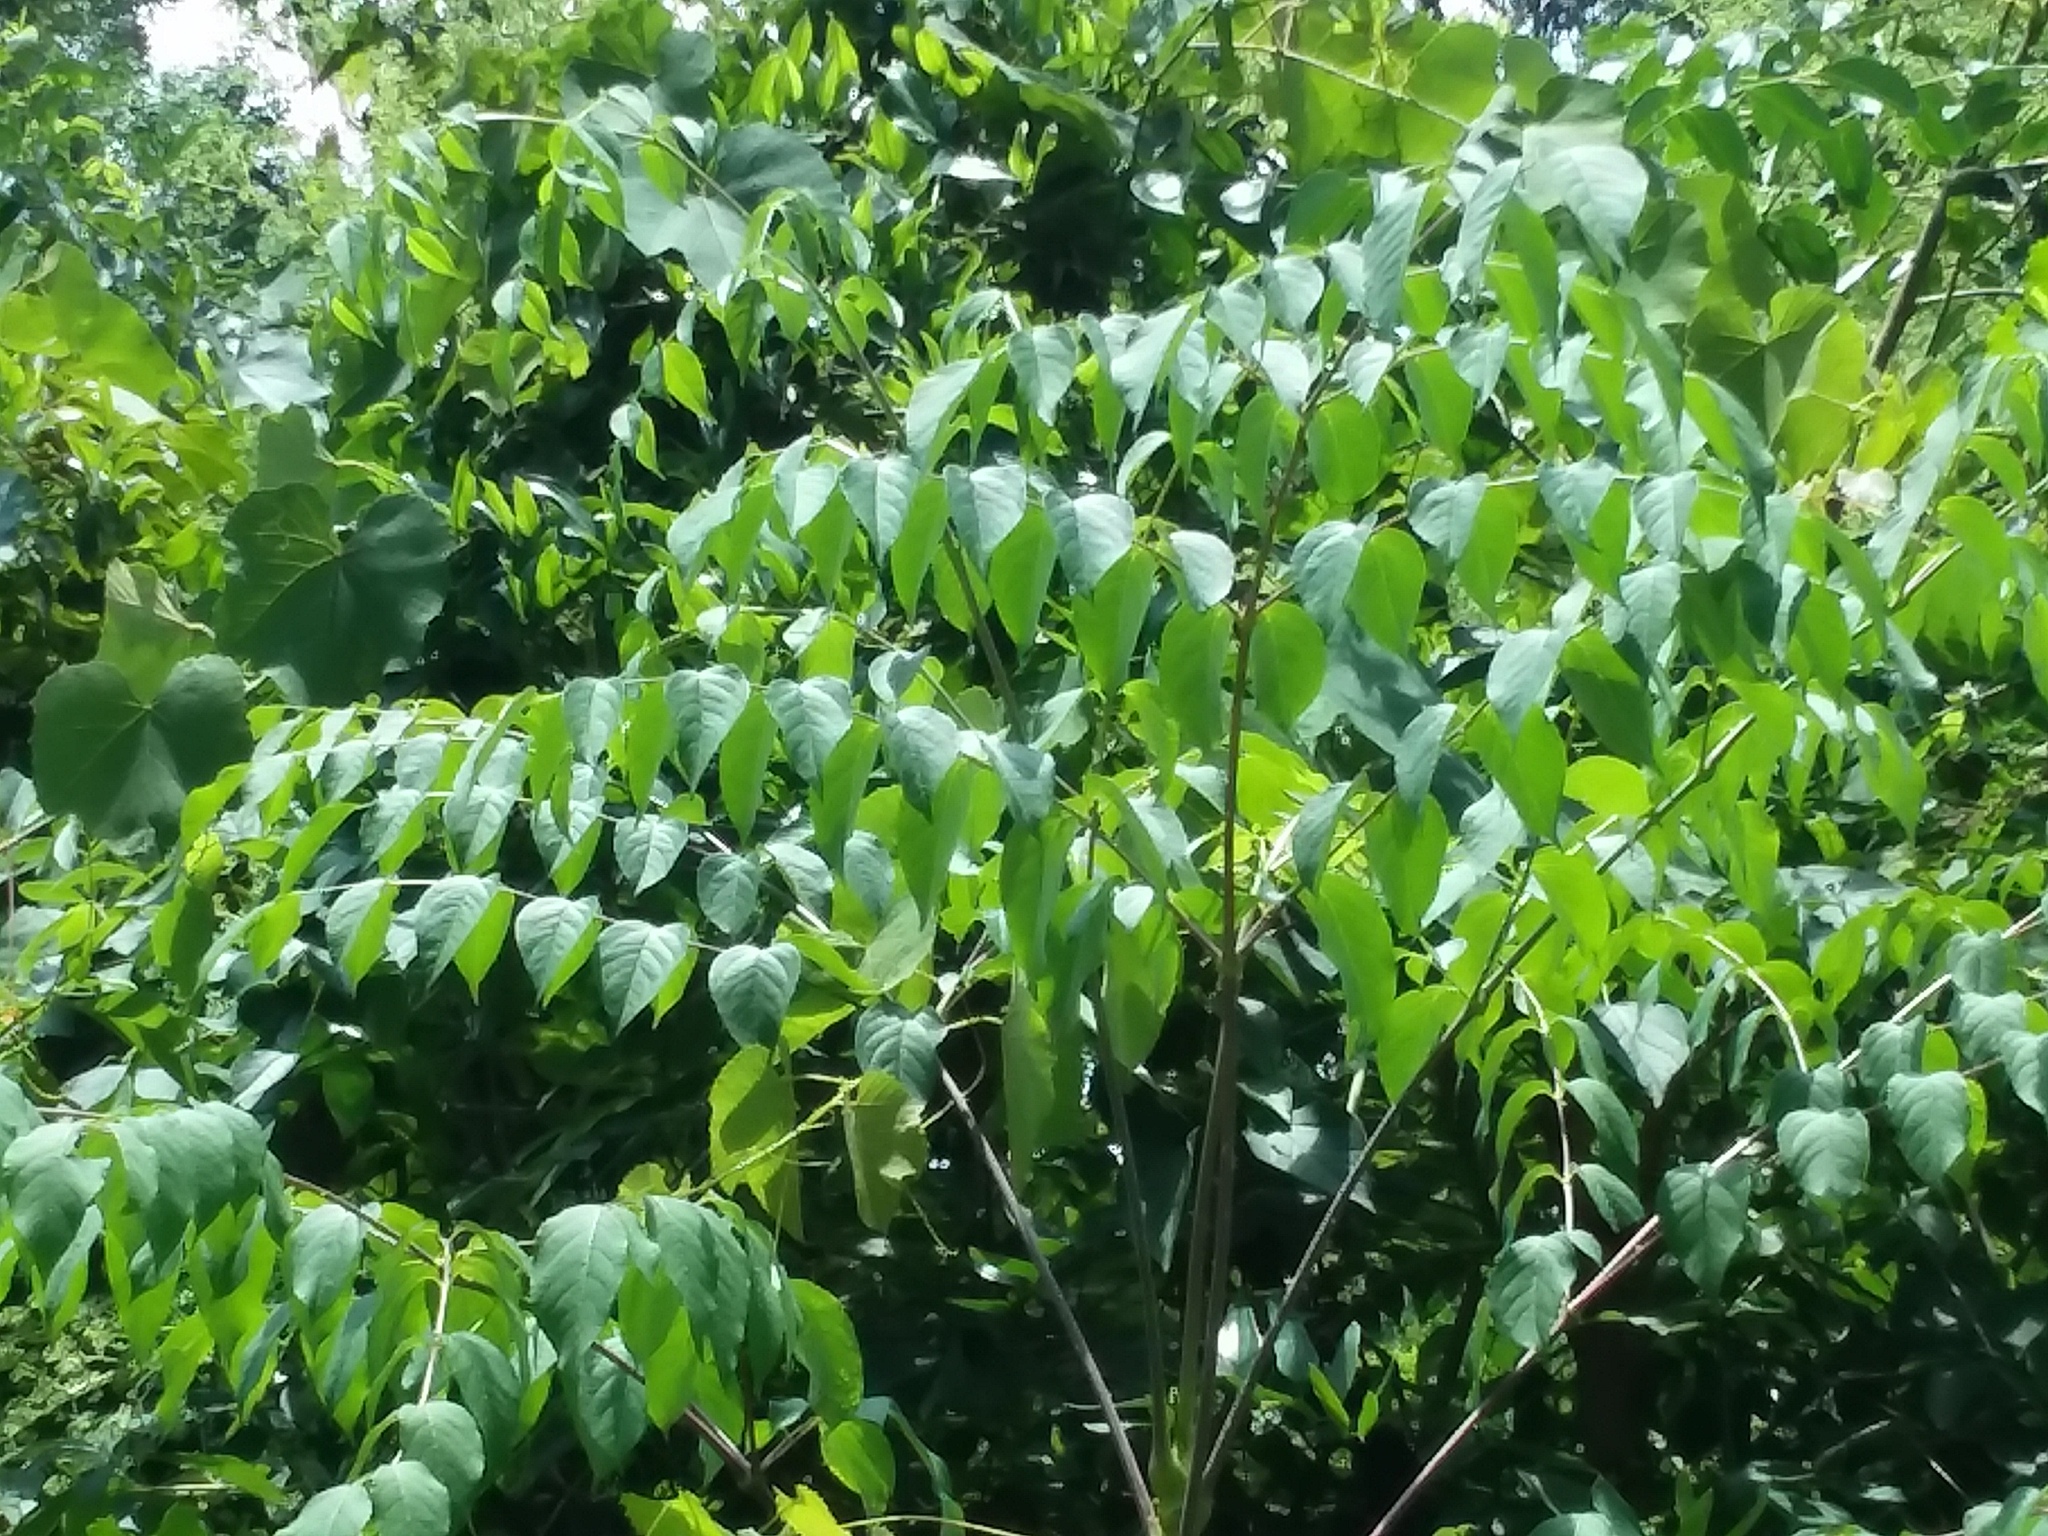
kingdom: Plantae
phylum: Tracheophyta
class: Magnoliopsida
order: Apiales
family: Araliaceae
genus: Aralia
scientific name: Aralia spinosa
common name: Hercules'-club
